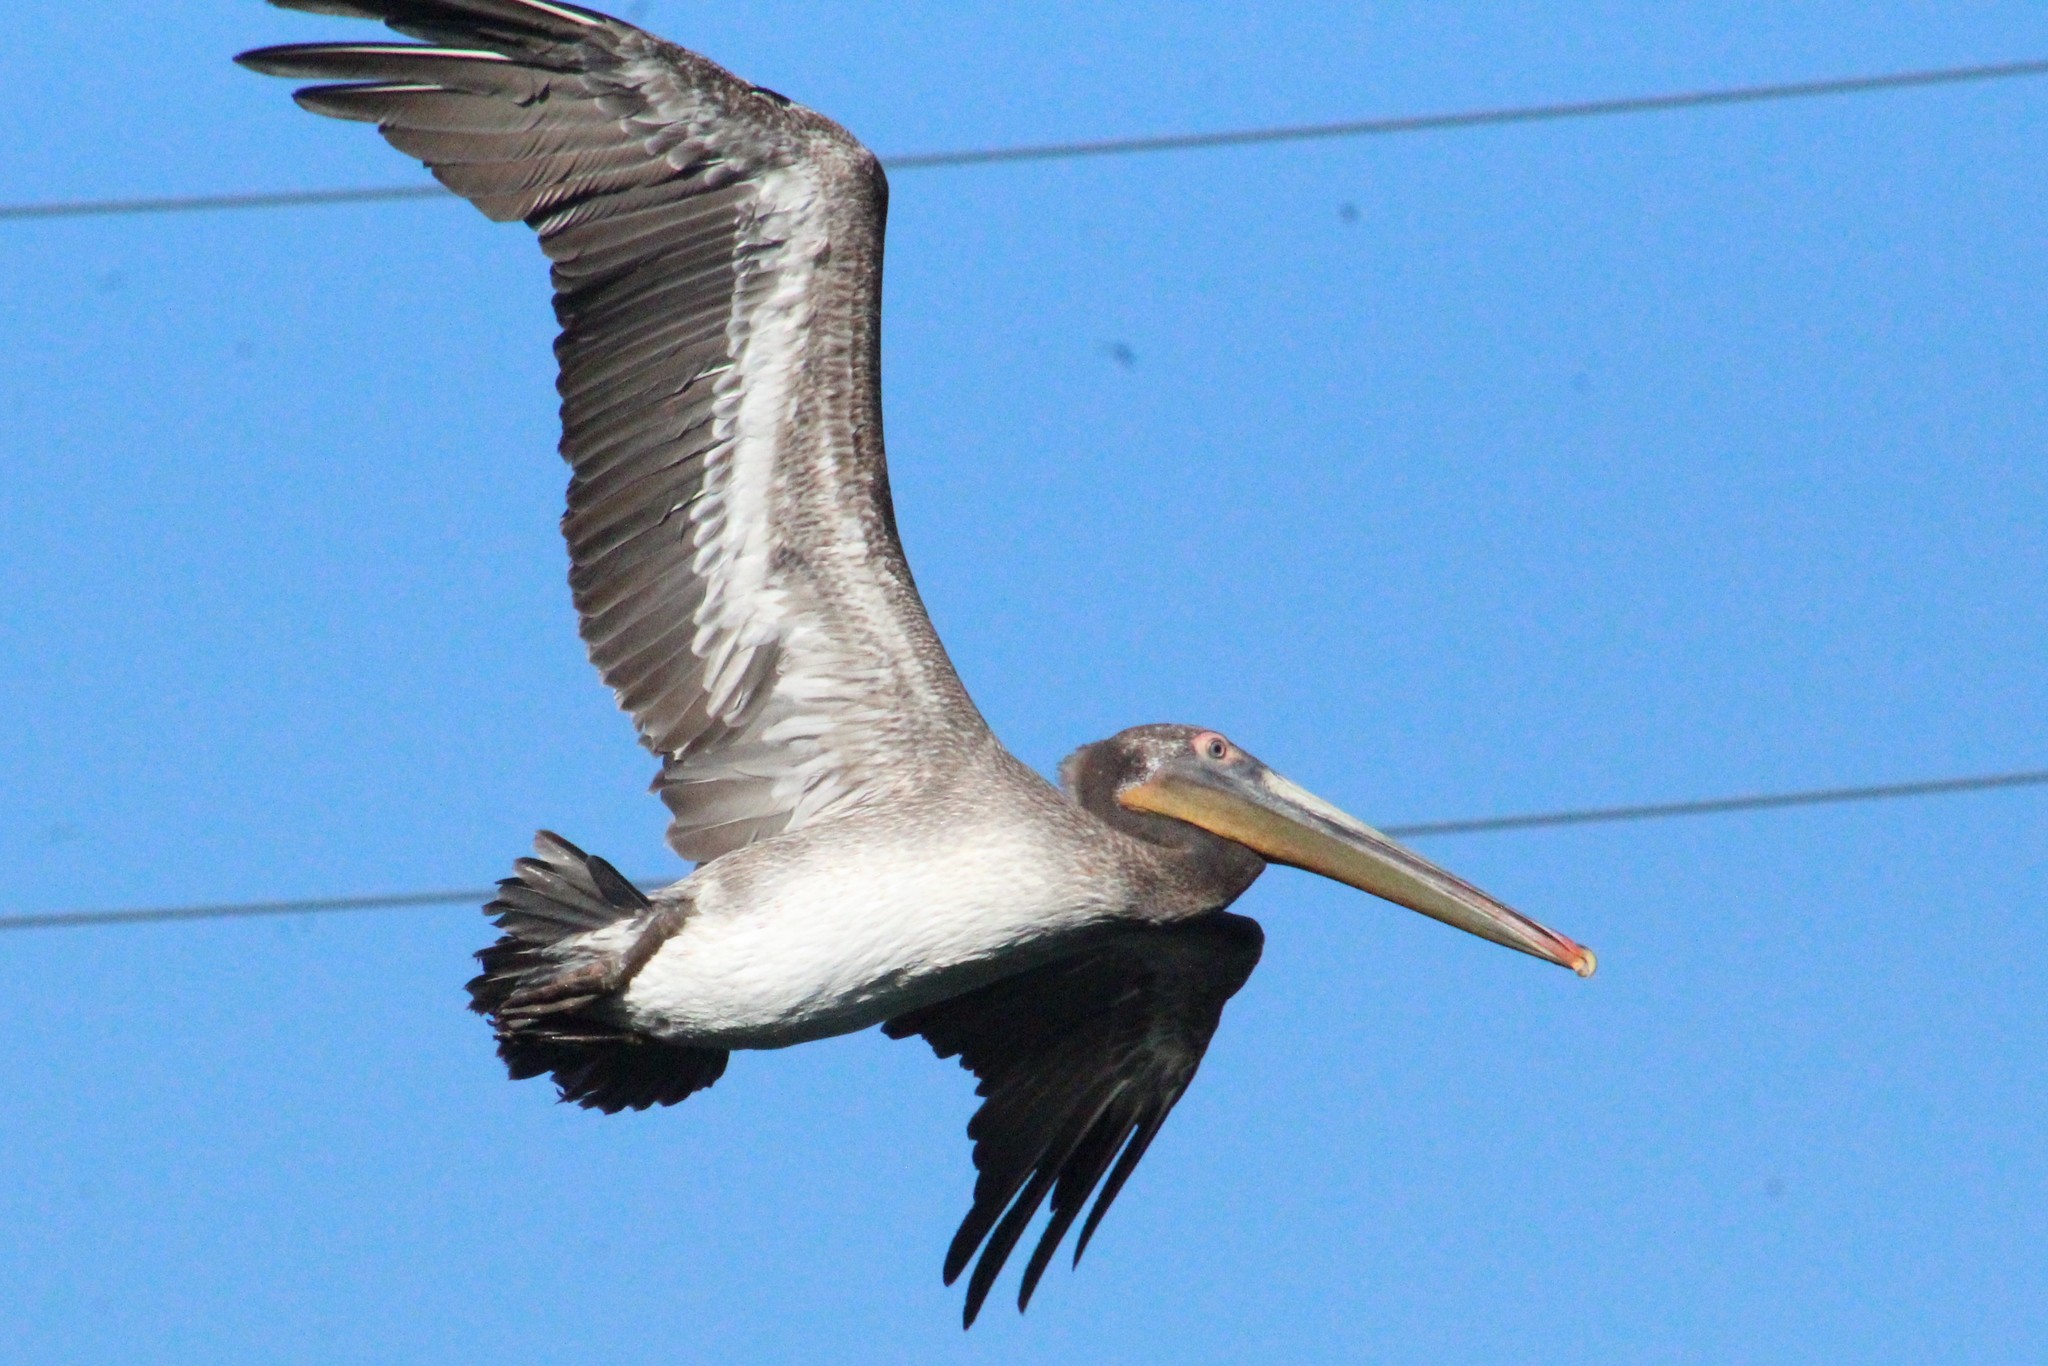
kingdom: Animalia
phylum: Chordata
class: Aves
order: Pelecaniformes
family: Pelecanidae
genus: Pelecanus
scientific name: Pelecanus occidentalis
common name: Brown pelican
